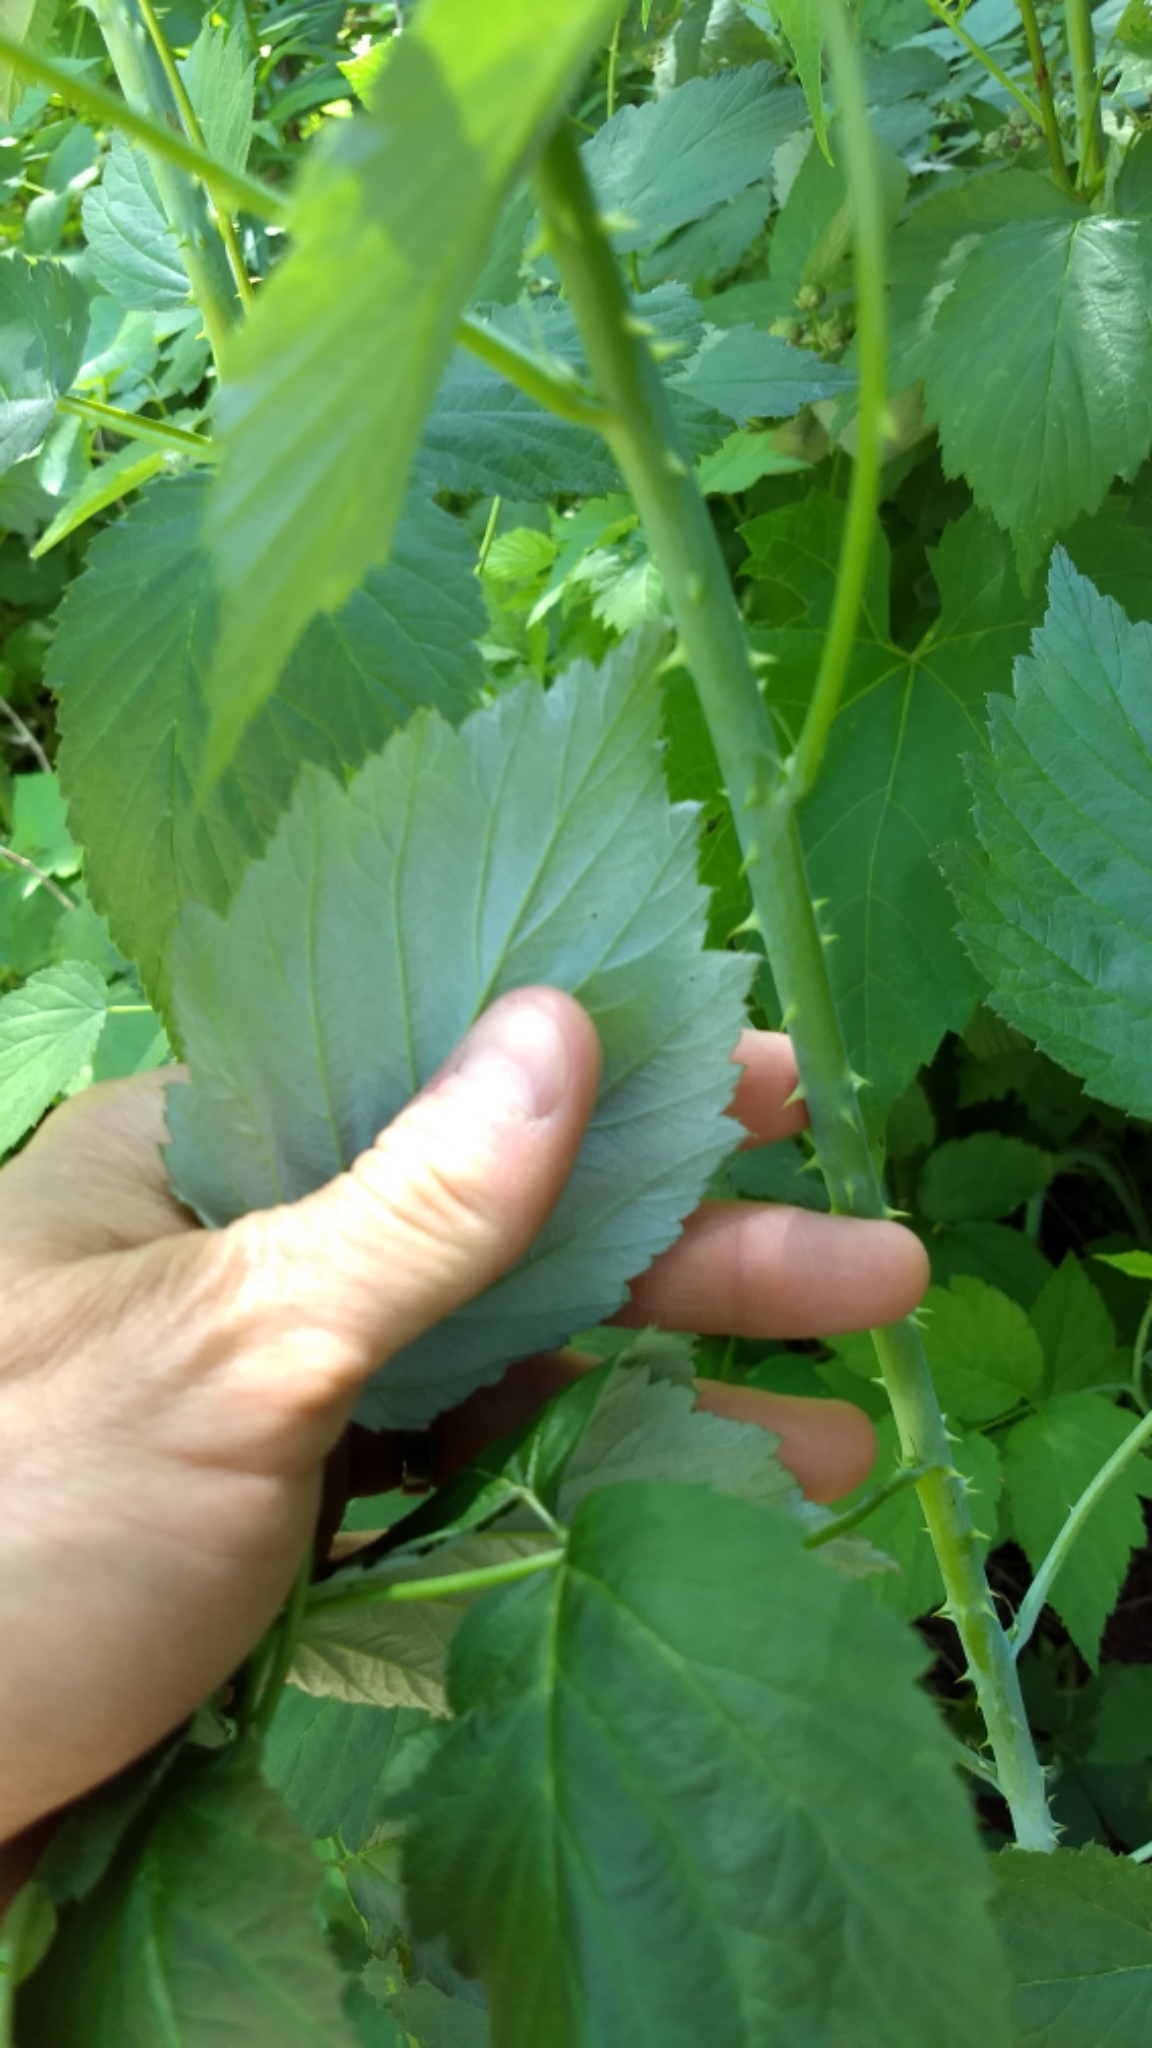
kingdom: Plantae
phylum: Tracheophyta
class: Magnoliopsida
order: Rosales
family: Rosaceae
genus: Rubus
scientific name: Rubus occidentalis
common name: Black raspberry
